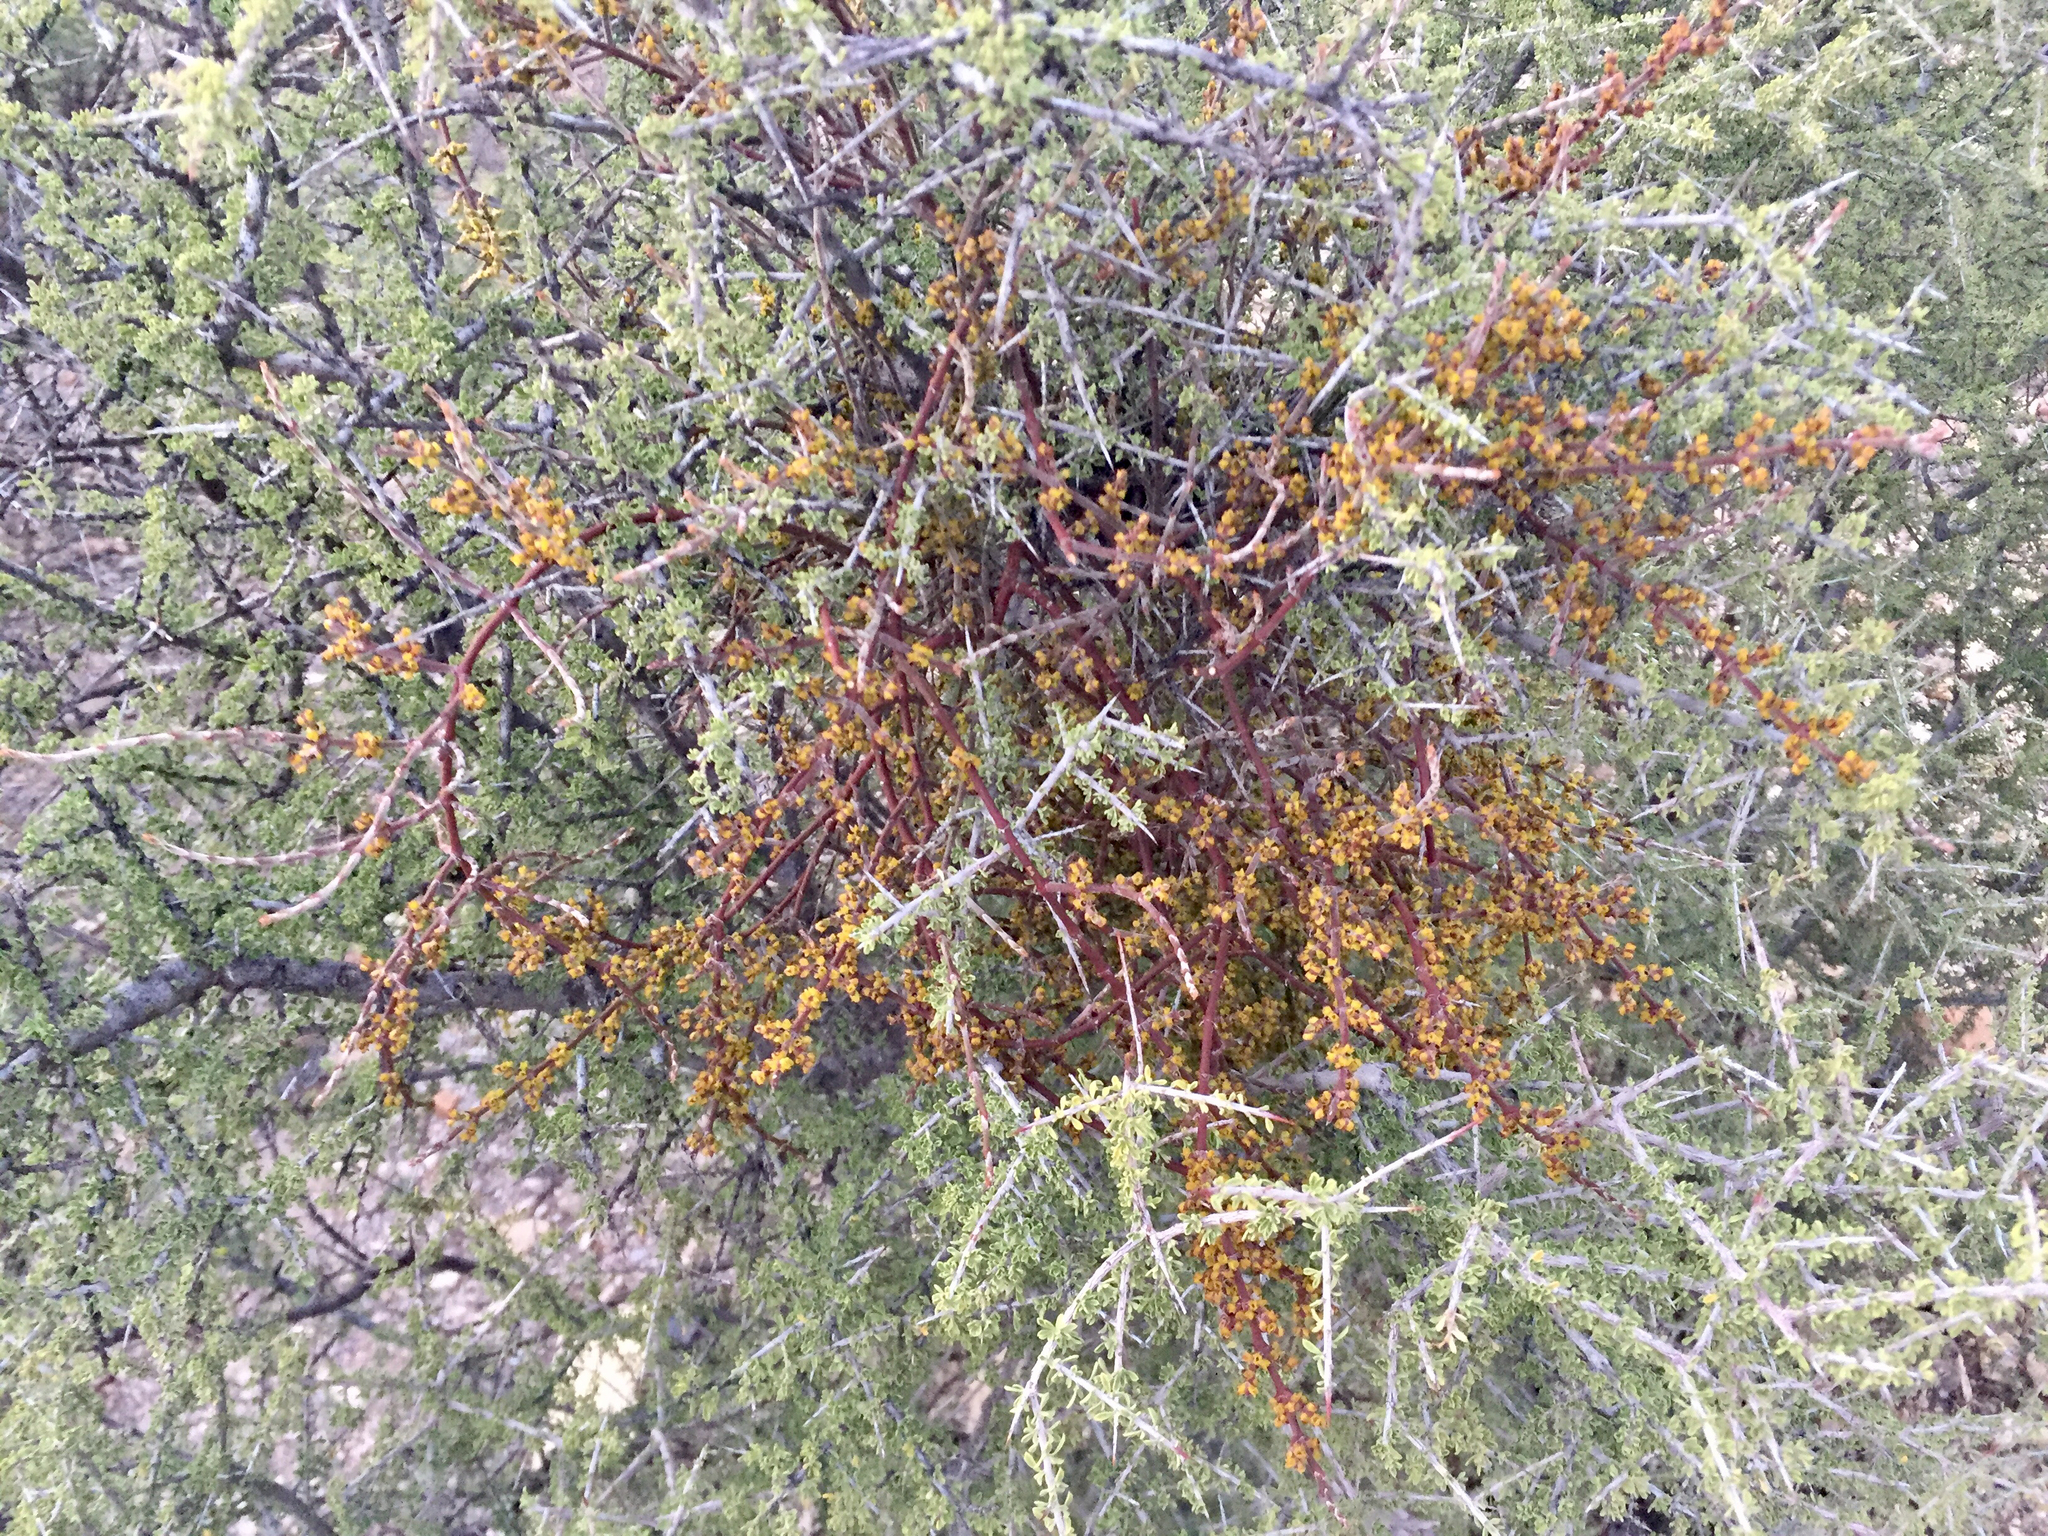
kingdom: Plantae
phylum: Tracheophyta
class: Magnoliopsida
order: Santalales
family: Viscaceae
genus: Phoradendron
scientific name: Phoradendron californicum
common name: Acacia mistletoe
